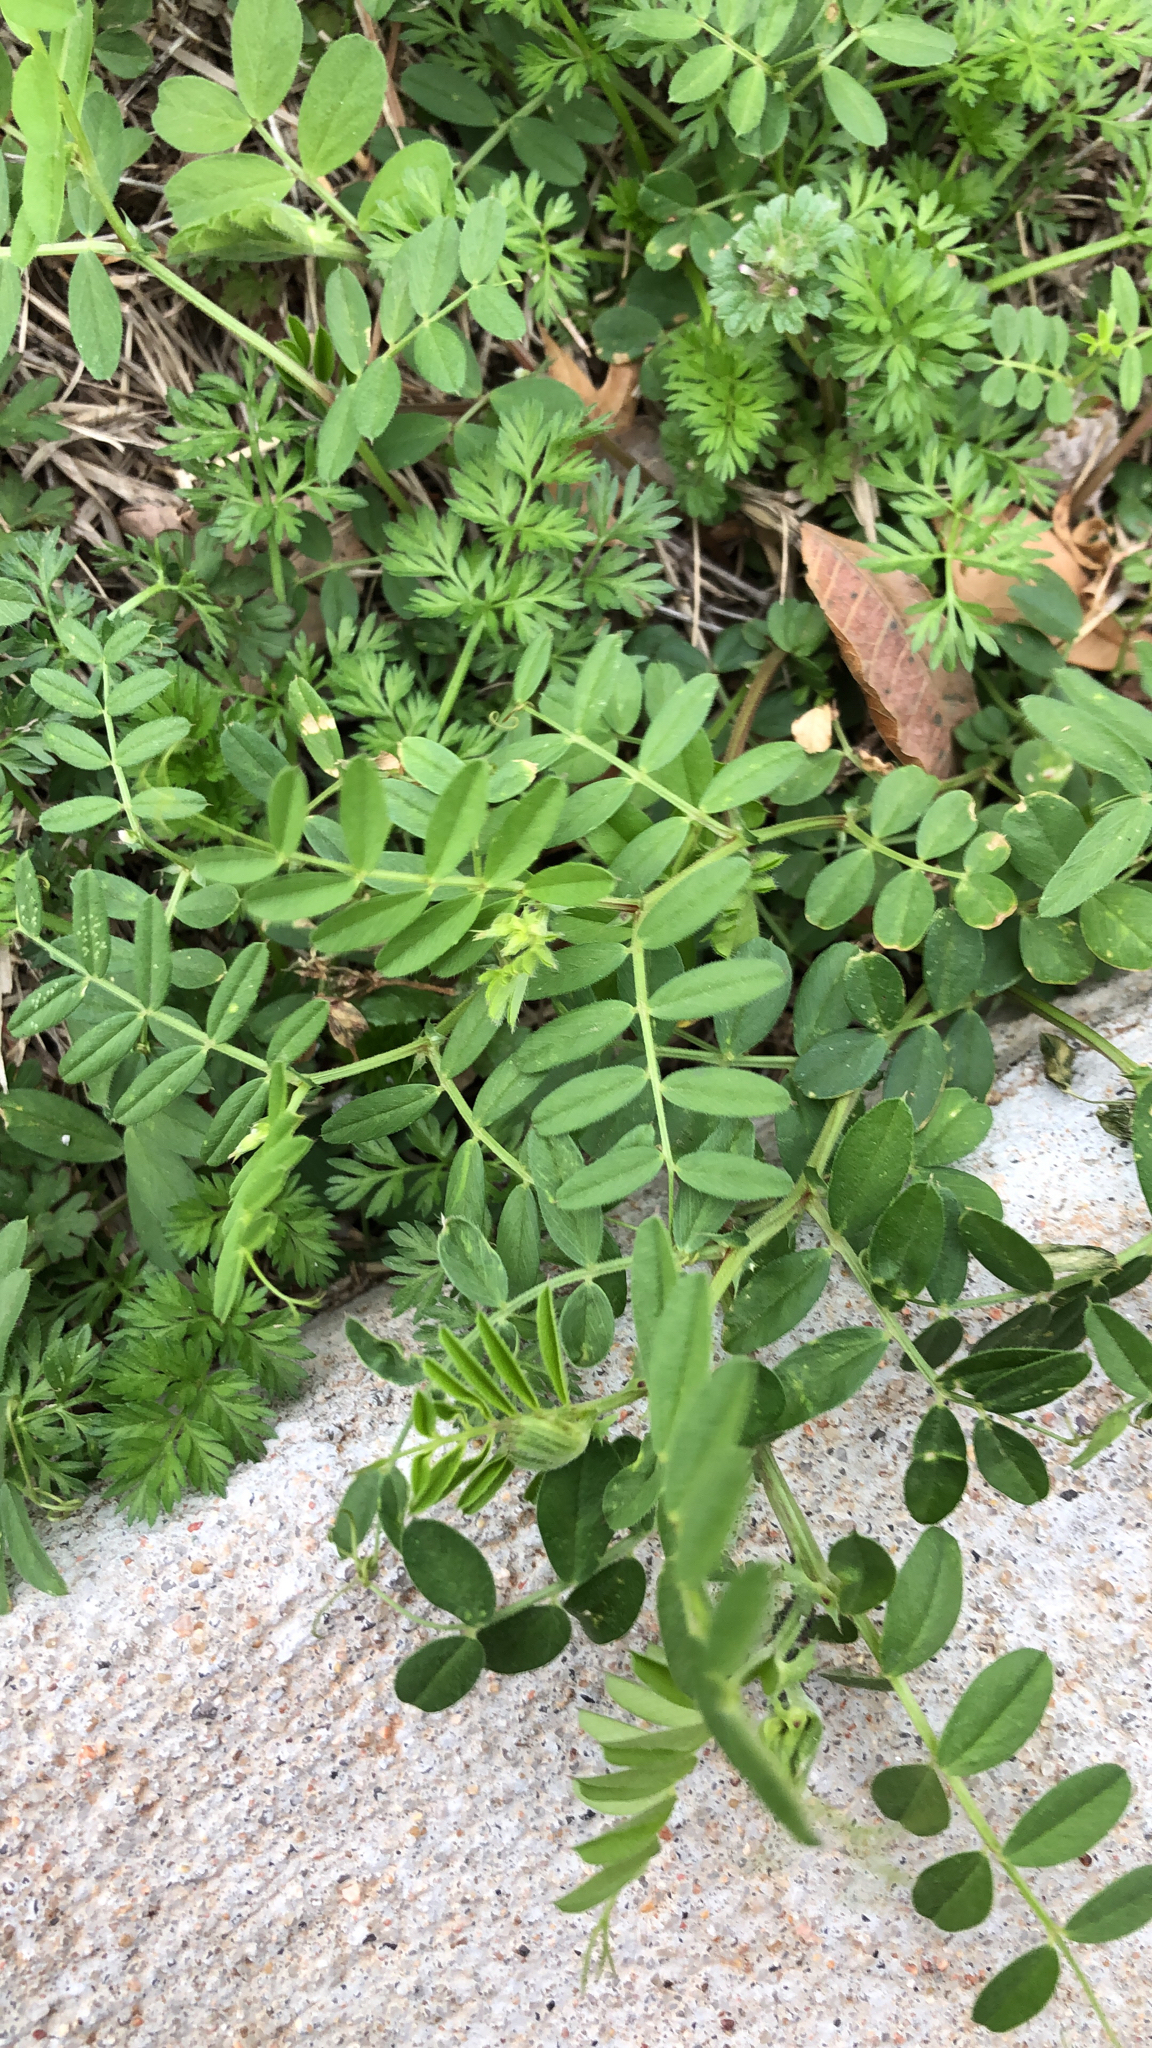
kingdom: Plantae
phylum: Tracheophyta
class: Magnoliopsida
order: Fabales
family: Fabaceae
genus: Vicia
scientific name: Vicia sativa
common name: Garden vetch
